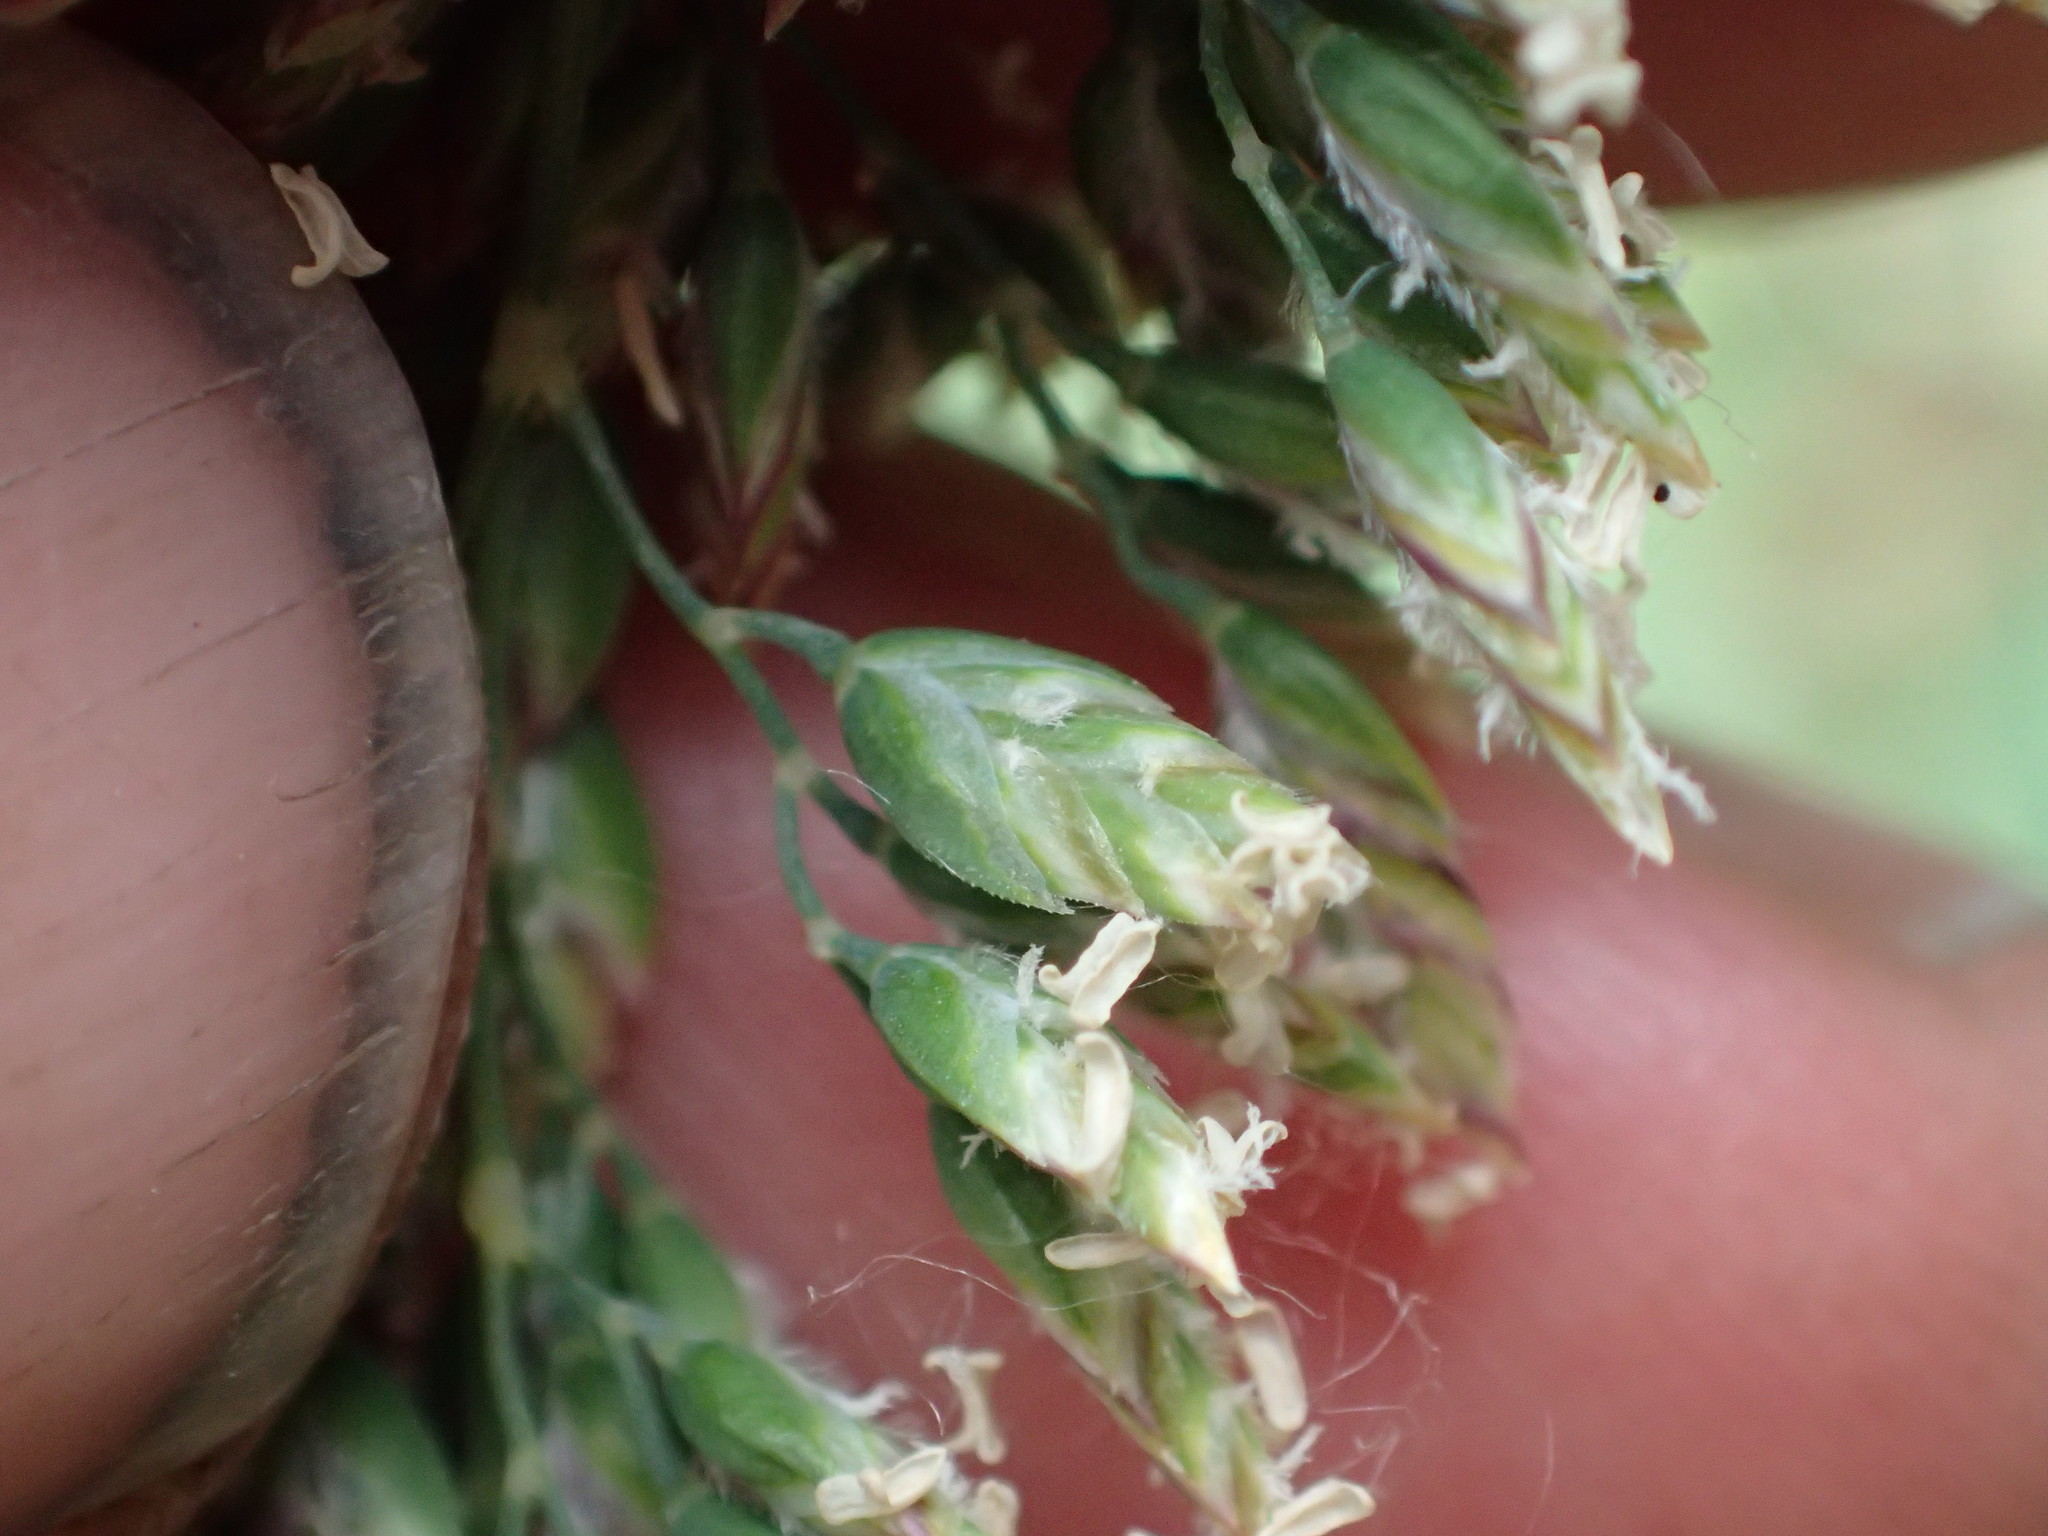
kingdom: Plantae
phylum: Tracheophyta
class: Liliopsida
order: Poales
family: Poaceae
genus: Poa
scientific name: Poa alpina
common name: Alpine bluegrass
